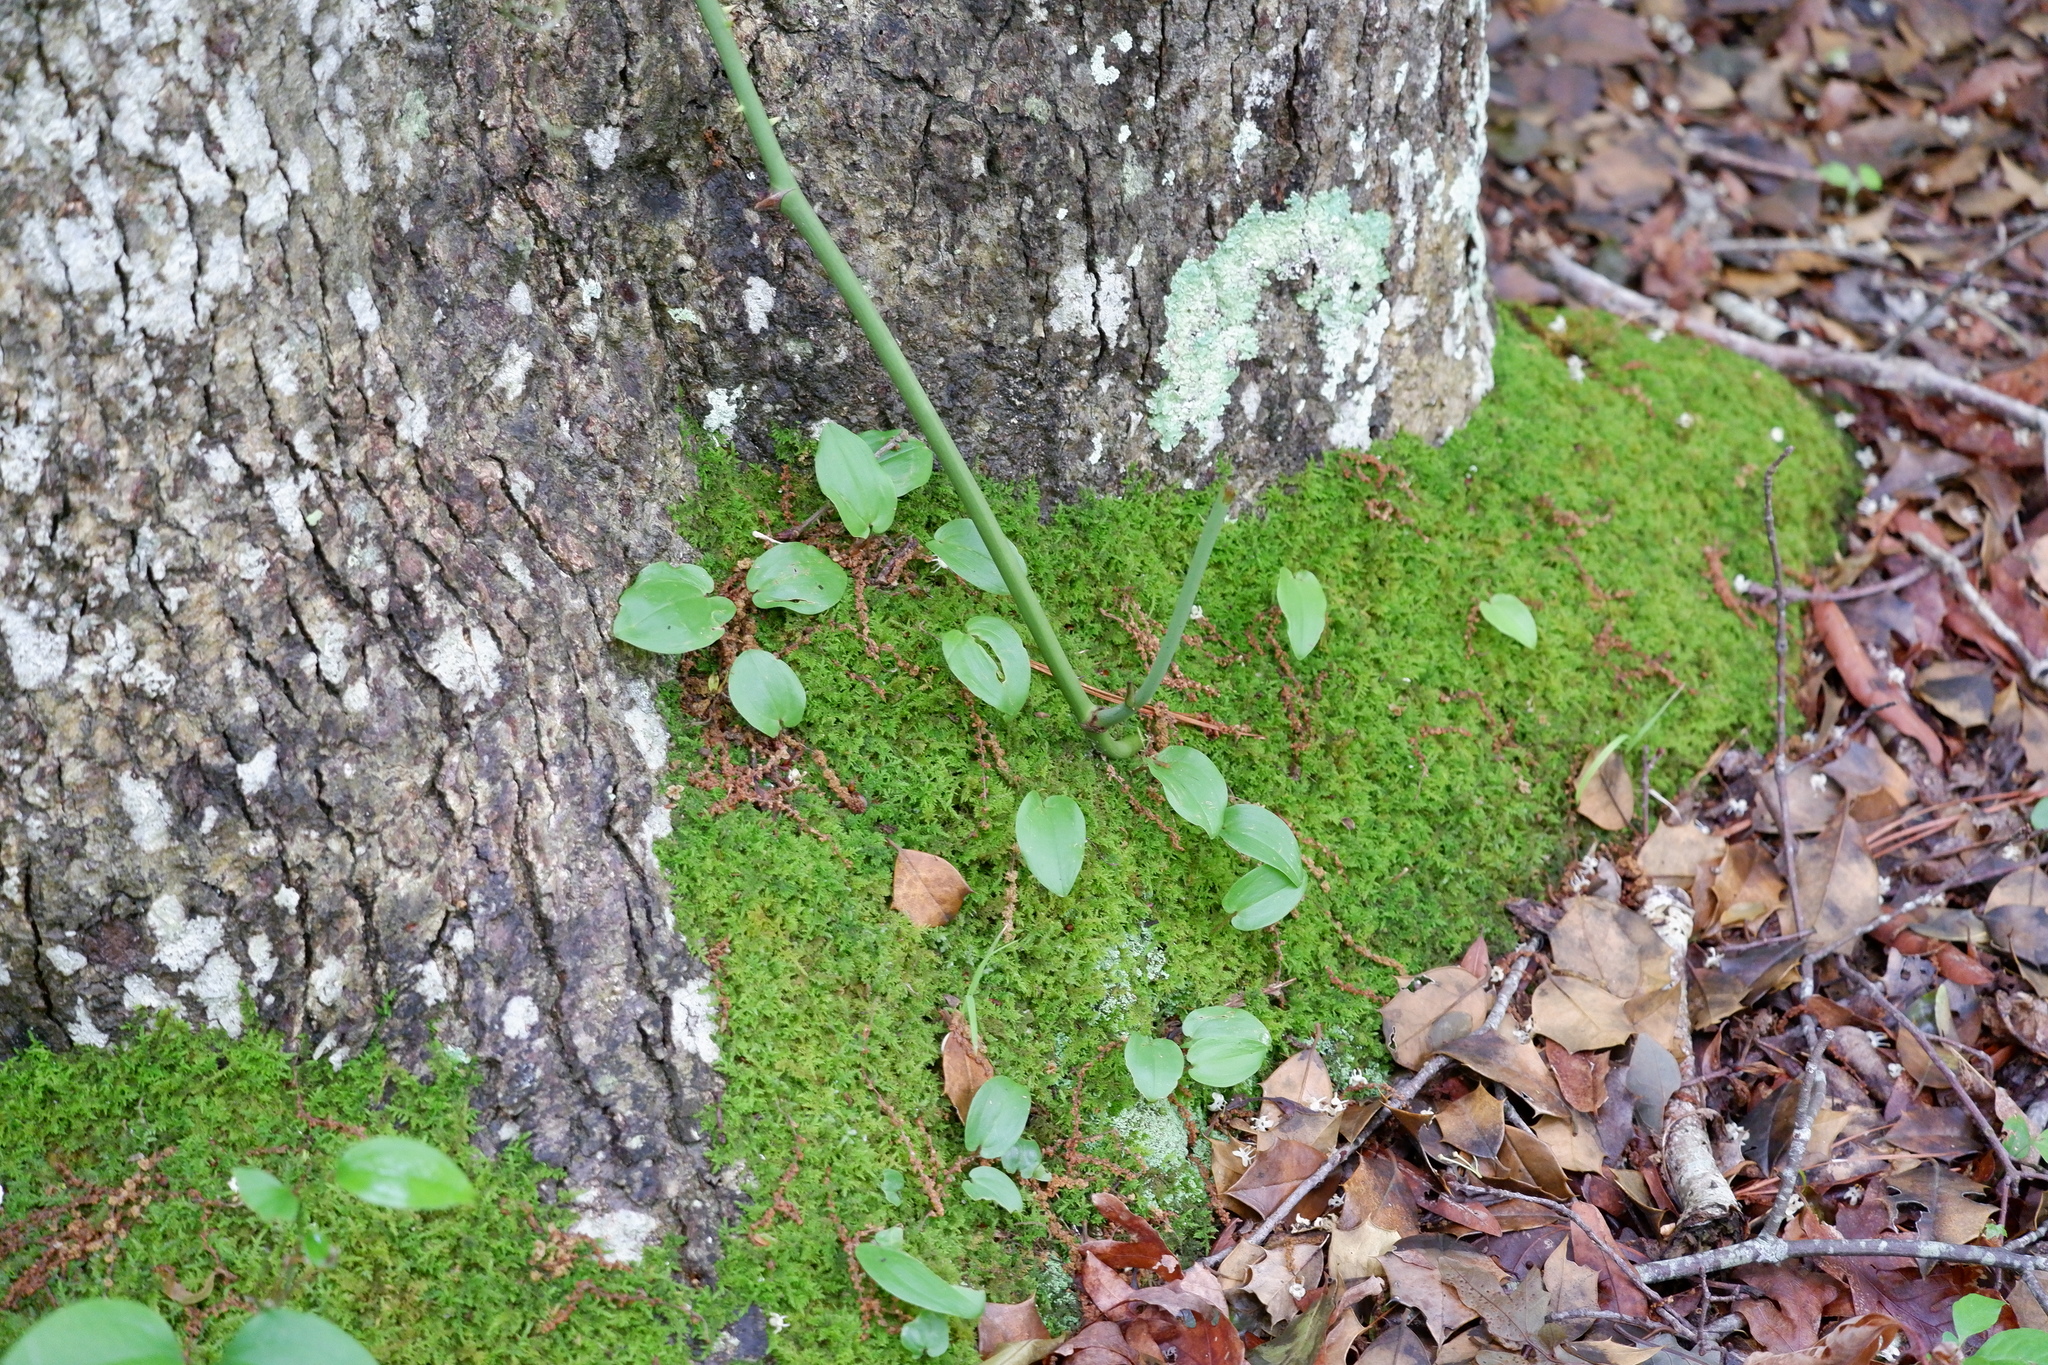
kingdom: Plantae
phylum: Tracheophyta
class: Liliopsida
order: Asparagales
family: Asparagaceae
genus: Maianthemum
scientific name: Maianthemum canadense
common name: False lily-of-the-valley
